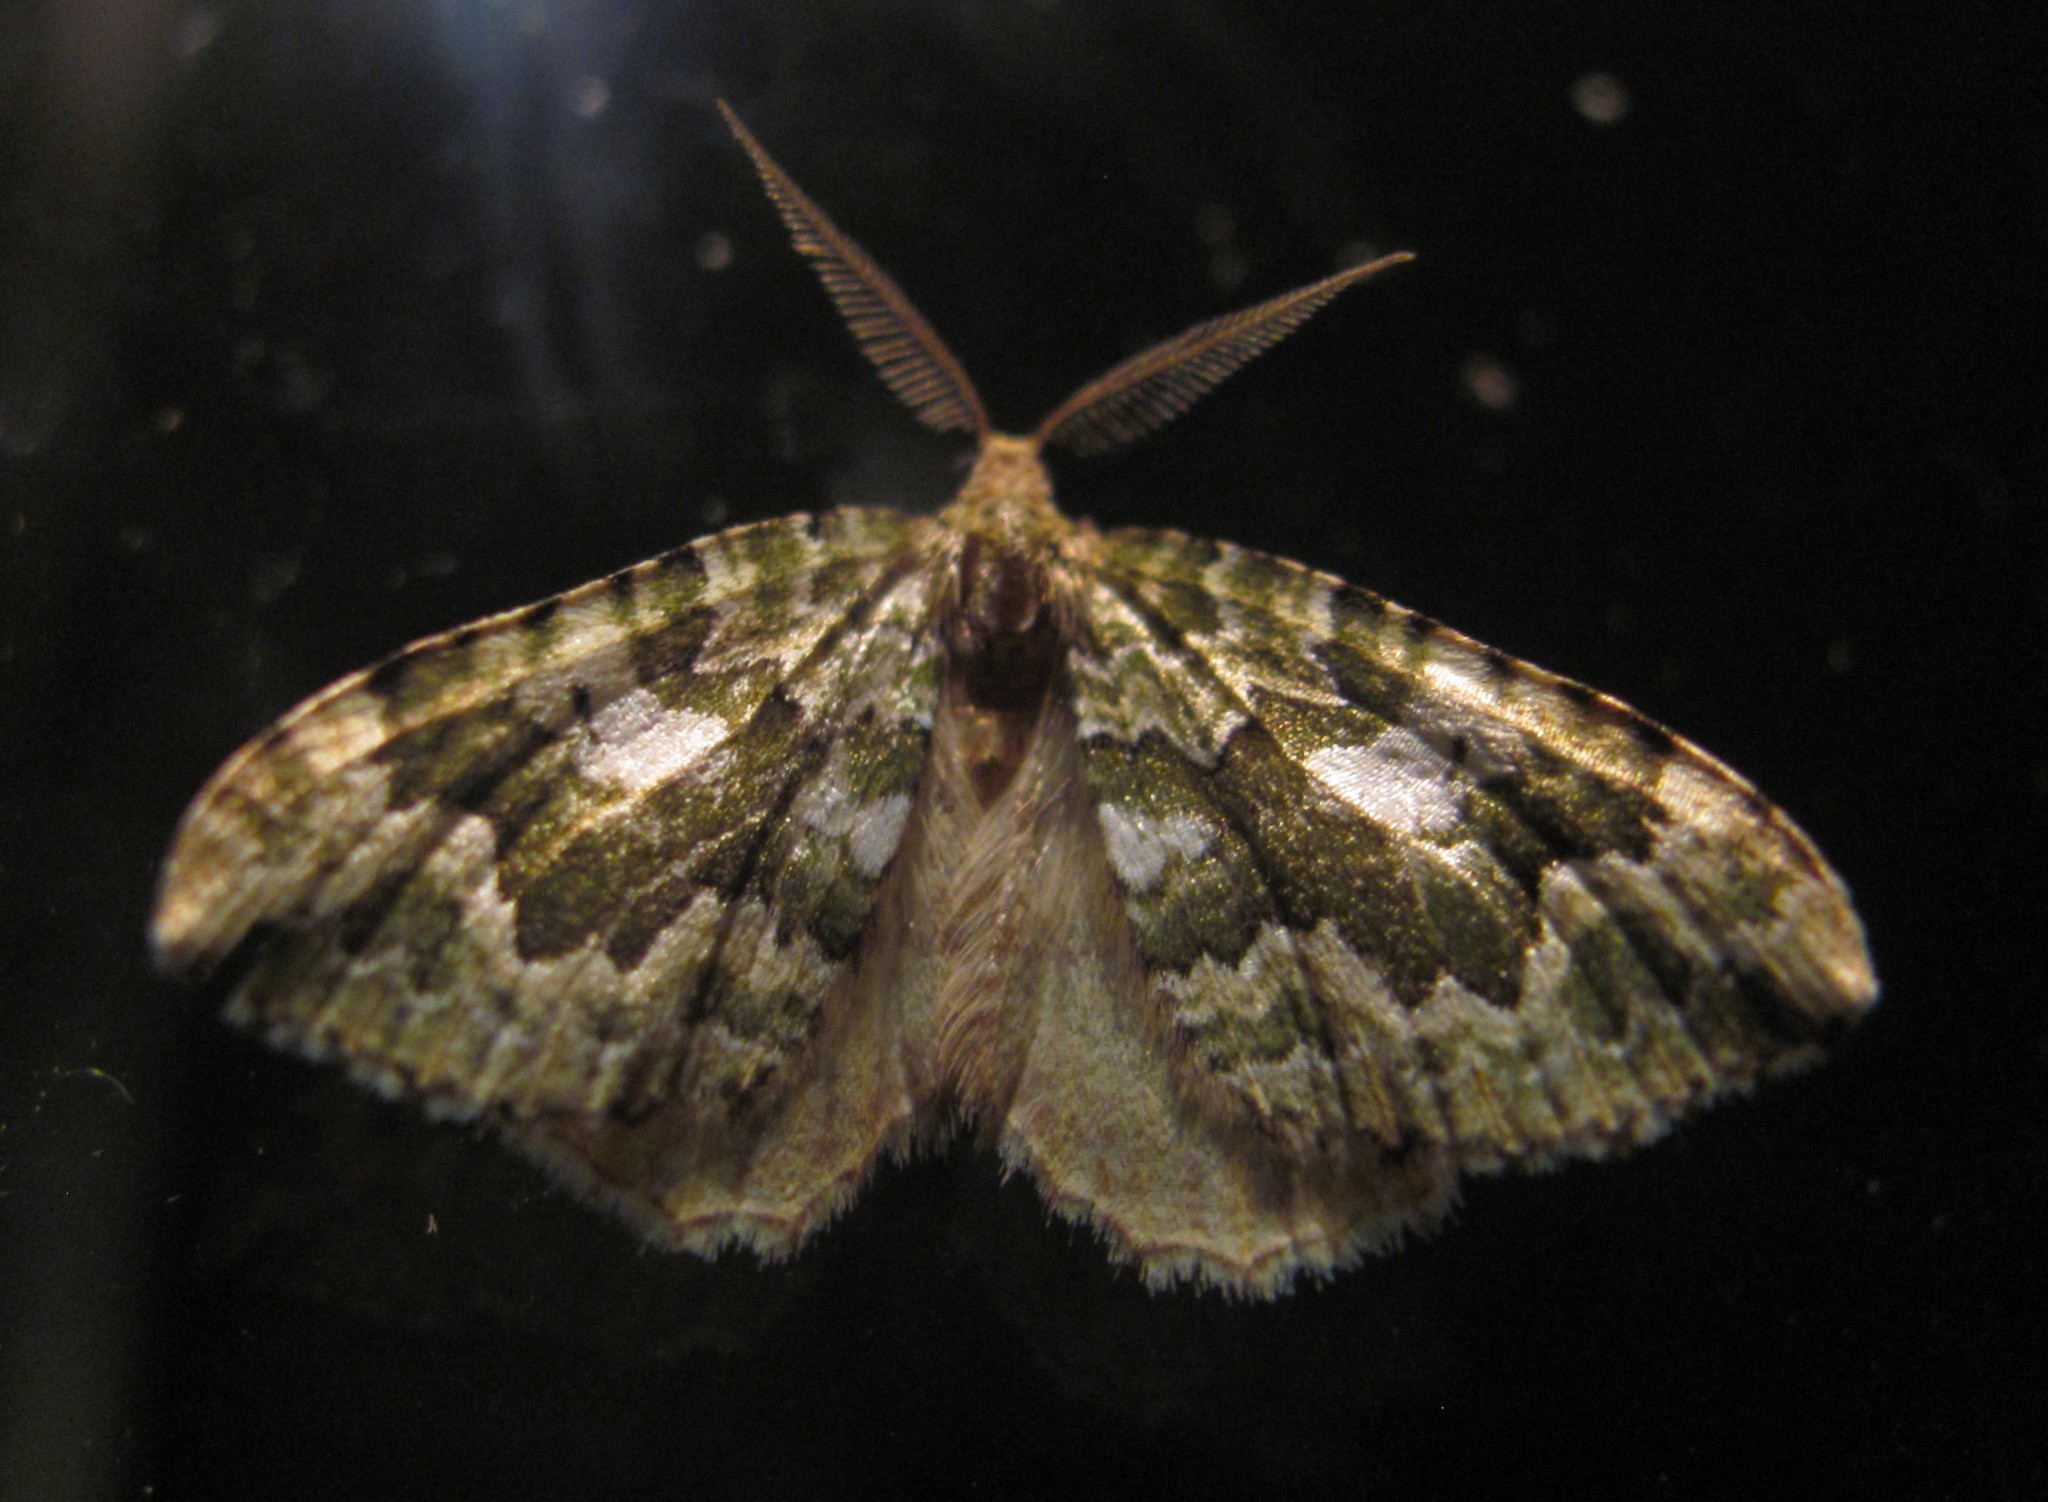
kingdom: Animalia
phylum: Arthropoda
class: Insecta
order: Lepidoptera
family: Geometridae
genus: Asaphodes
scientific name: Asaphodes beata
